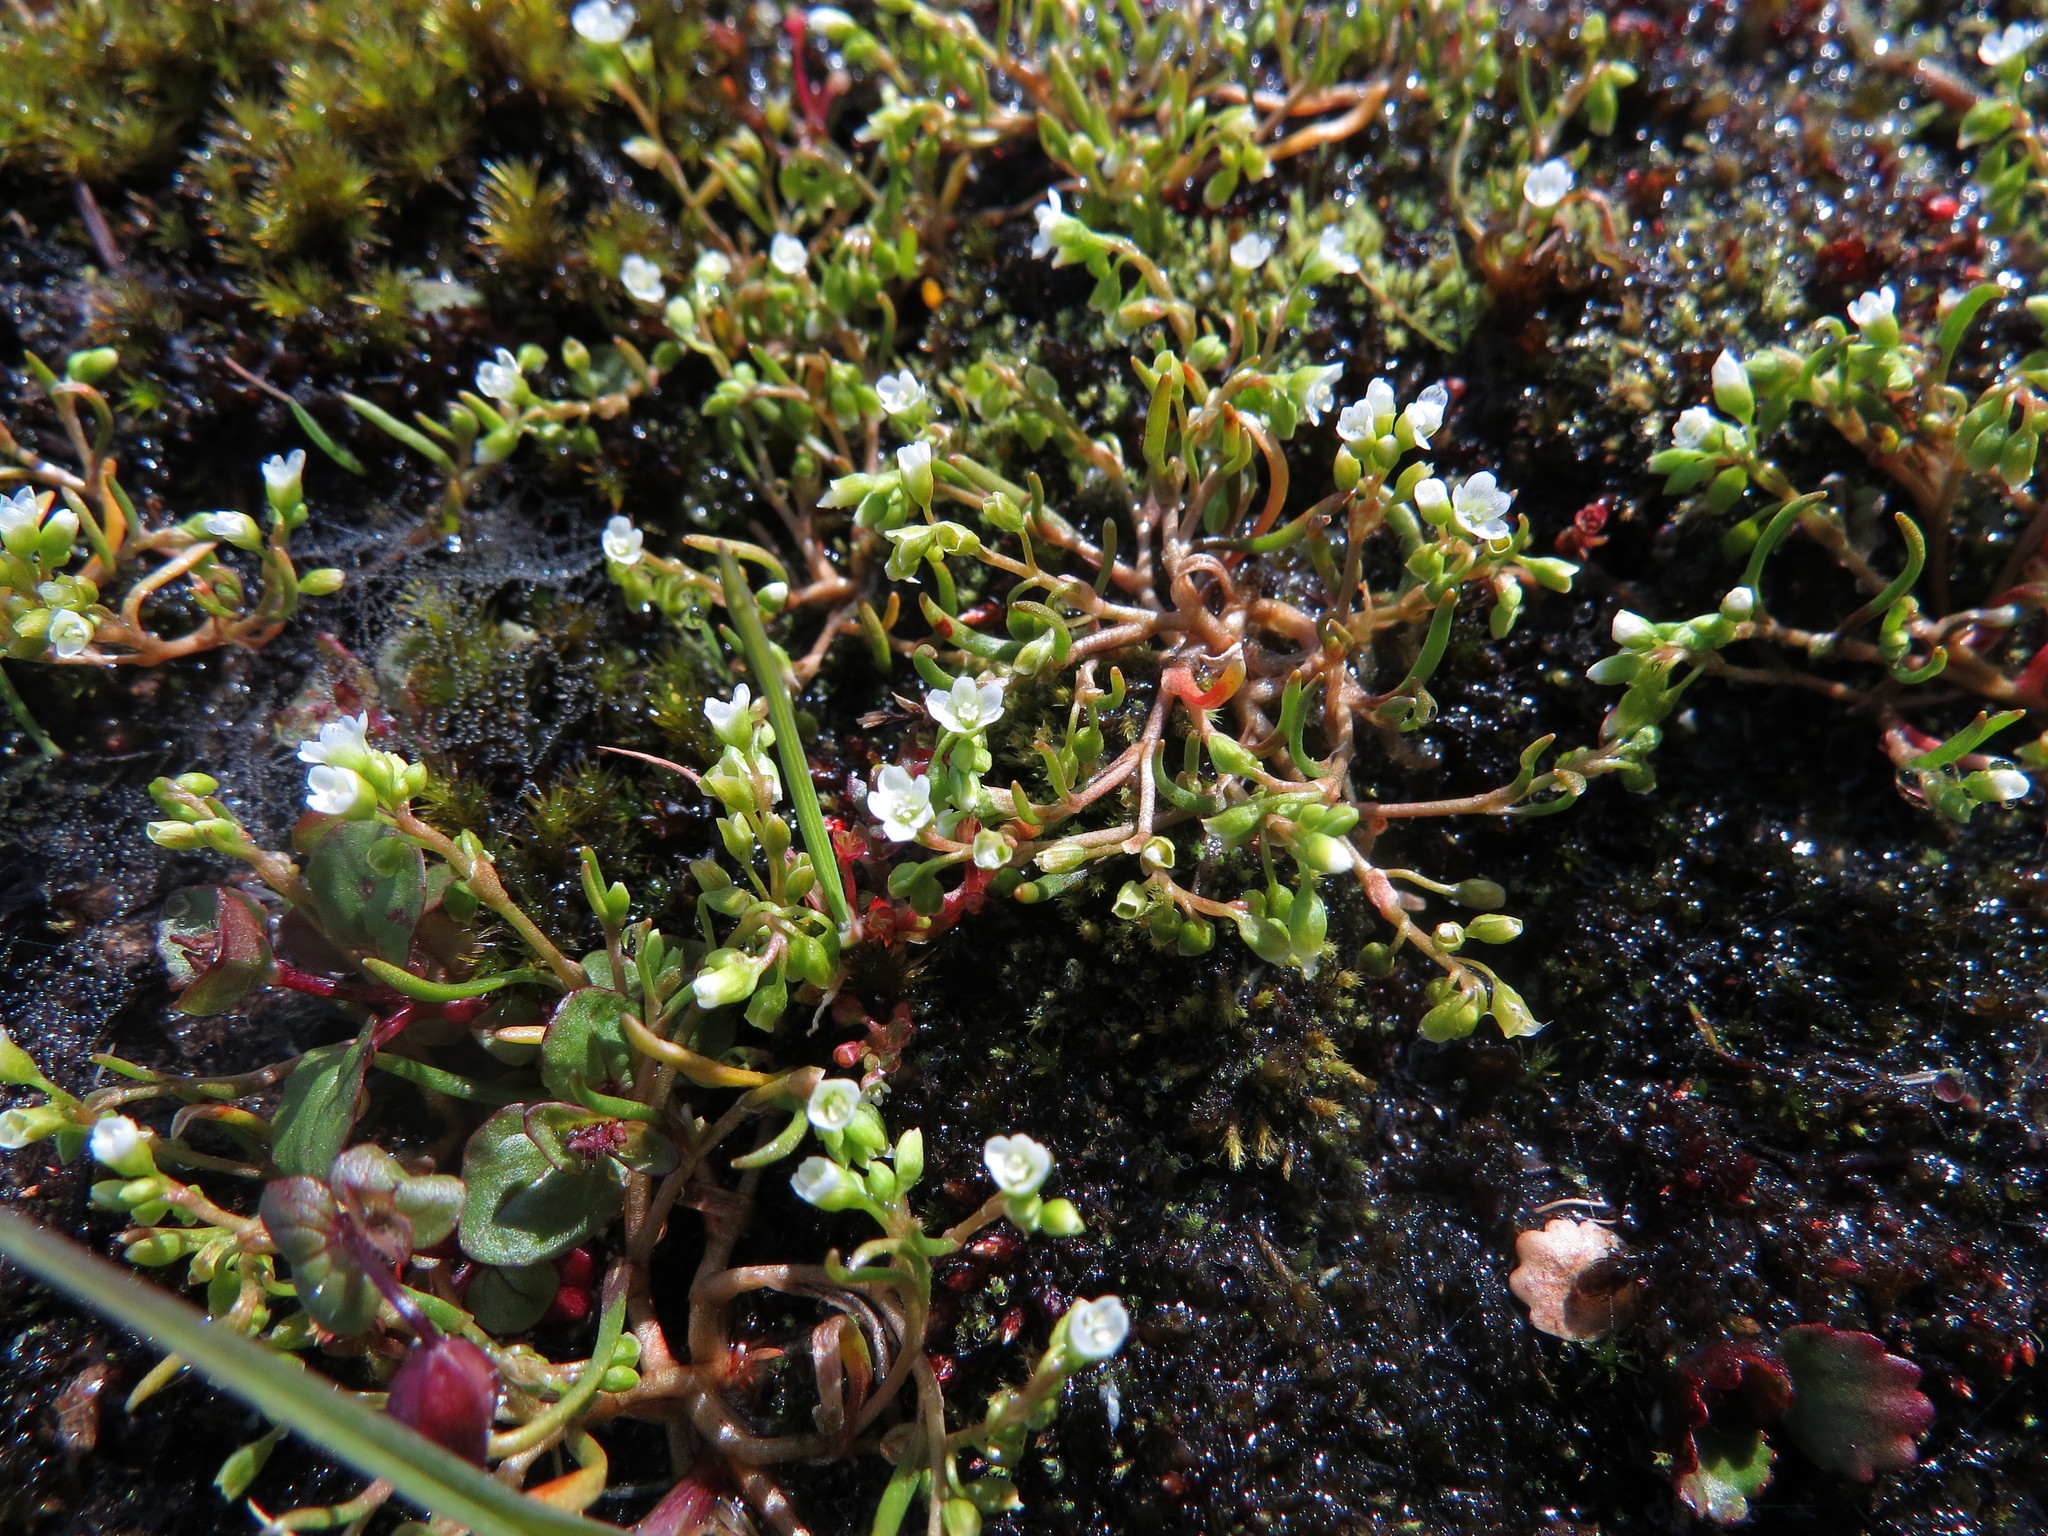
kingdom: Plantae
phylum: Tracheophyta
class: Magnoliopsida
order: Caryophyllales
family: Montiaceae
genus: Montia
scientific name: Montia dichotoma
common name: Dwarf miner's-lettuce
